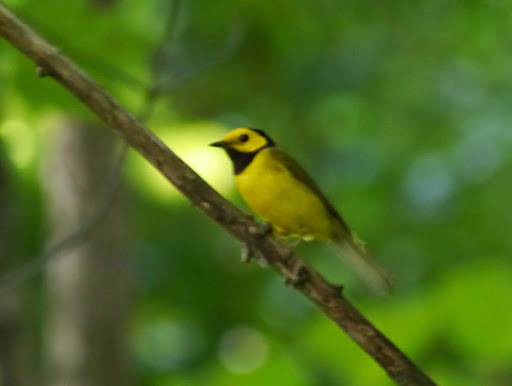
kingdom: Animalia
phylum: Chordata
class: Aves
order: Passeriformes
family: Parulidae
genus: Setophaga
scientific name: Setophaga citrina
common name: Hooded warbler
